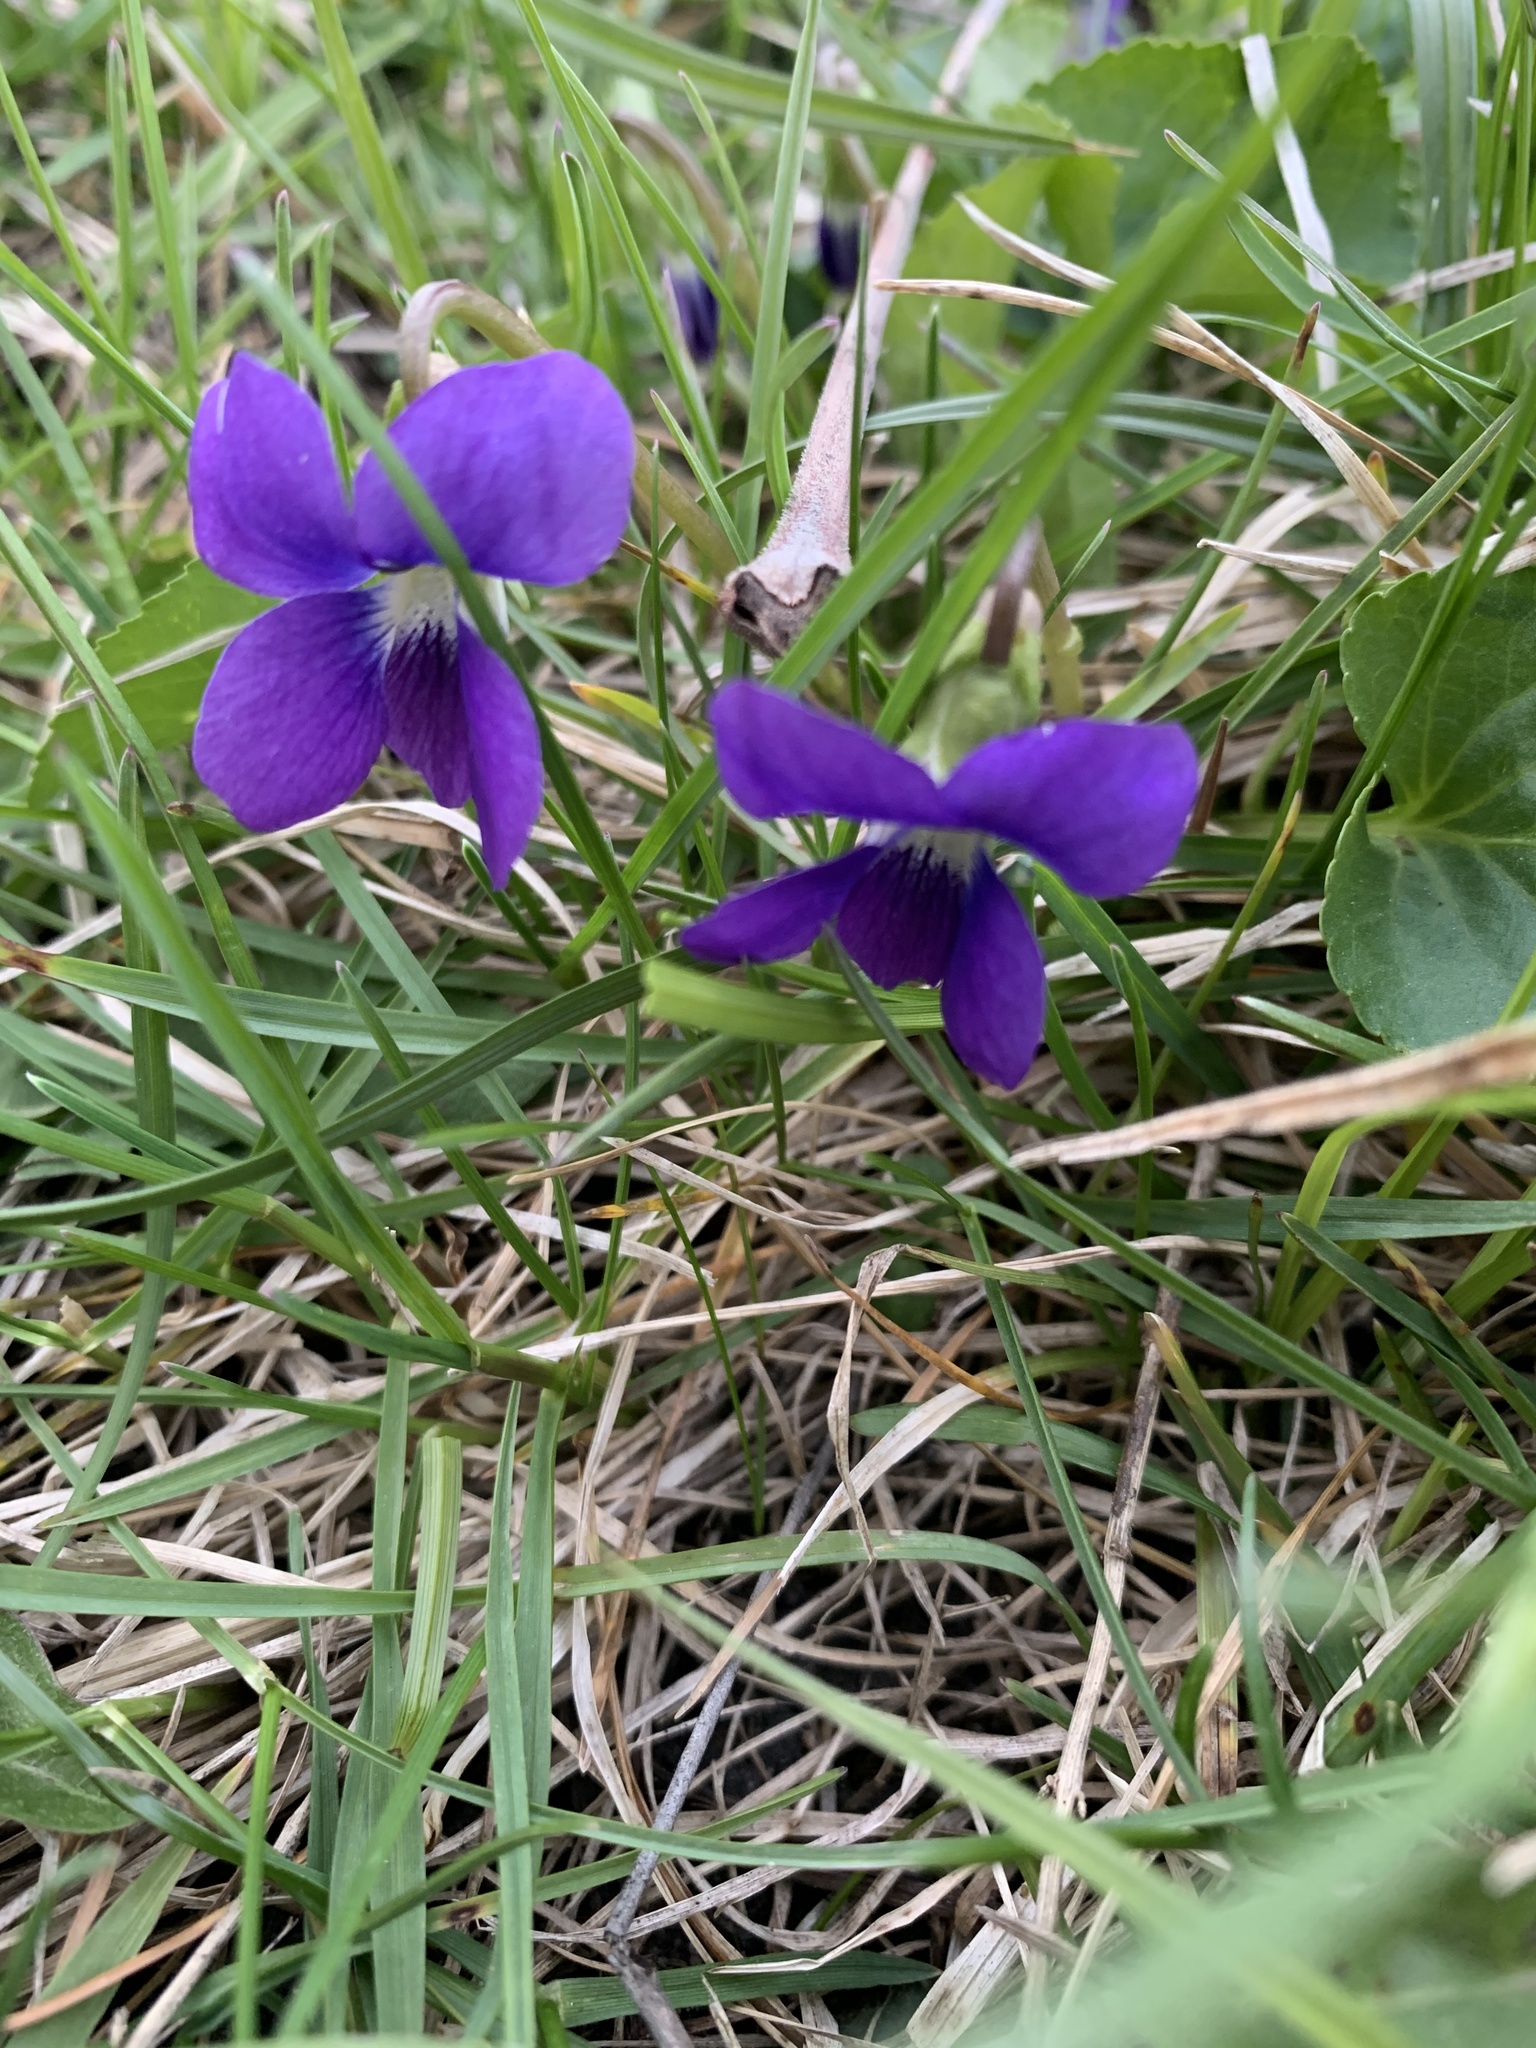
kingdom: Plantae
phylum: Tracheophyta
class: Magnoliopsida
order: Malpighiales
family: Violaceae
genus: Viola
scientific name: Viola sororia
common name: Dooryard violet
